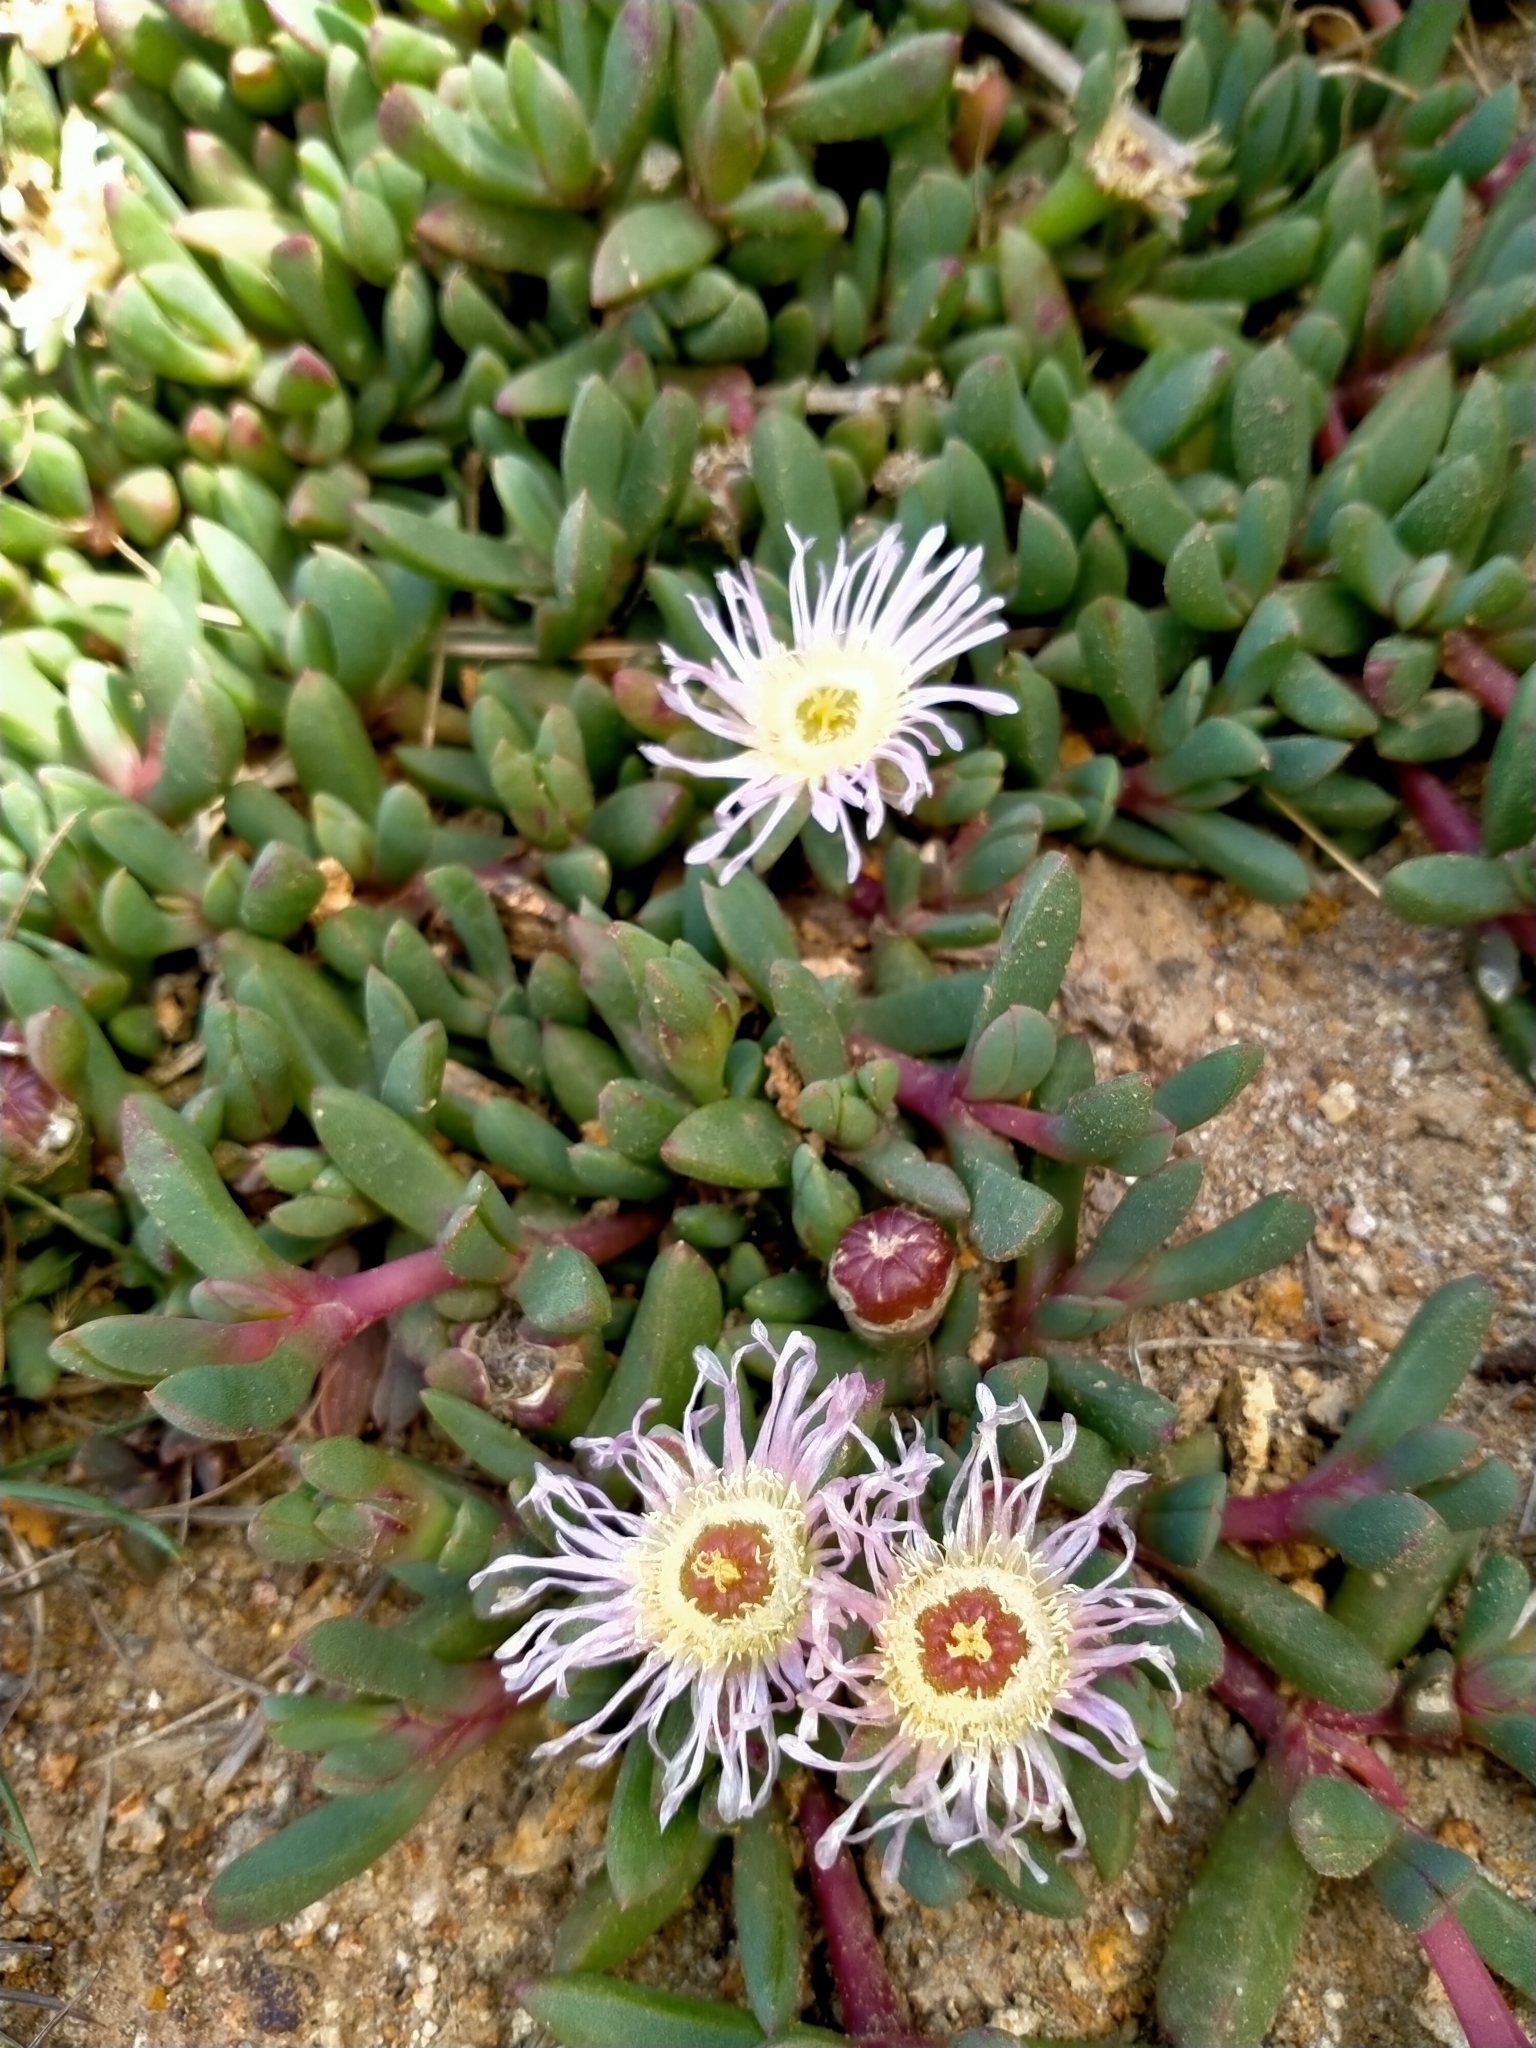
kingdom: Plantae
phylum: Tracheophyta
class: Magnoliopsida
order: Caryophyllales
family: Aizoaceae
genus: Disphyma
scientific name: Disphyma australe
